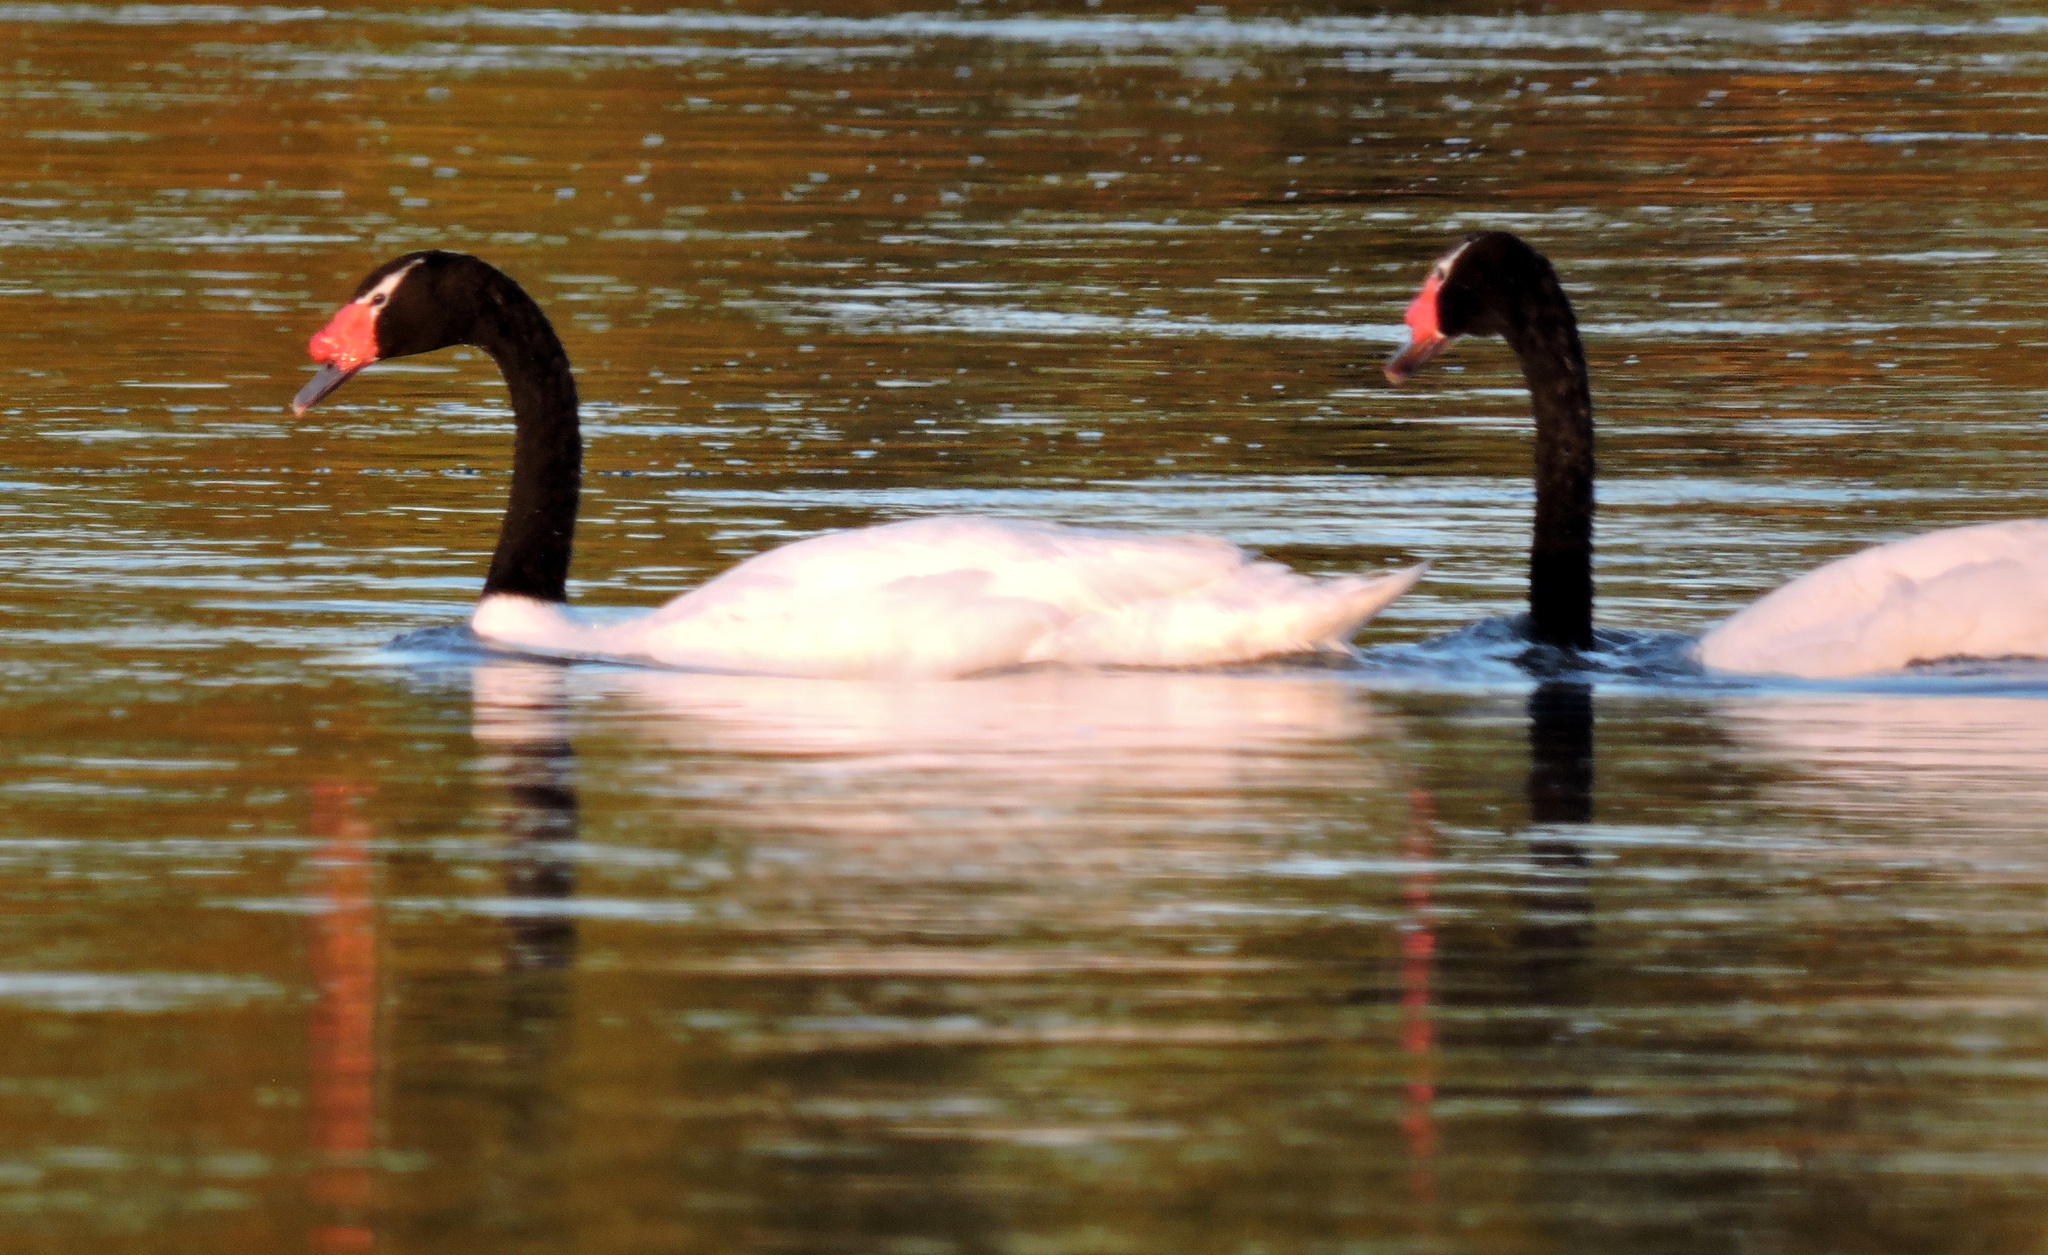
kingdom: Animalia
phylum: Chordata
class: Aves
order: Anseriformes
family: Anatidae
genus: Cygnus
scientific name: Cygnus melancoryphus
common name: Black-necked swan
